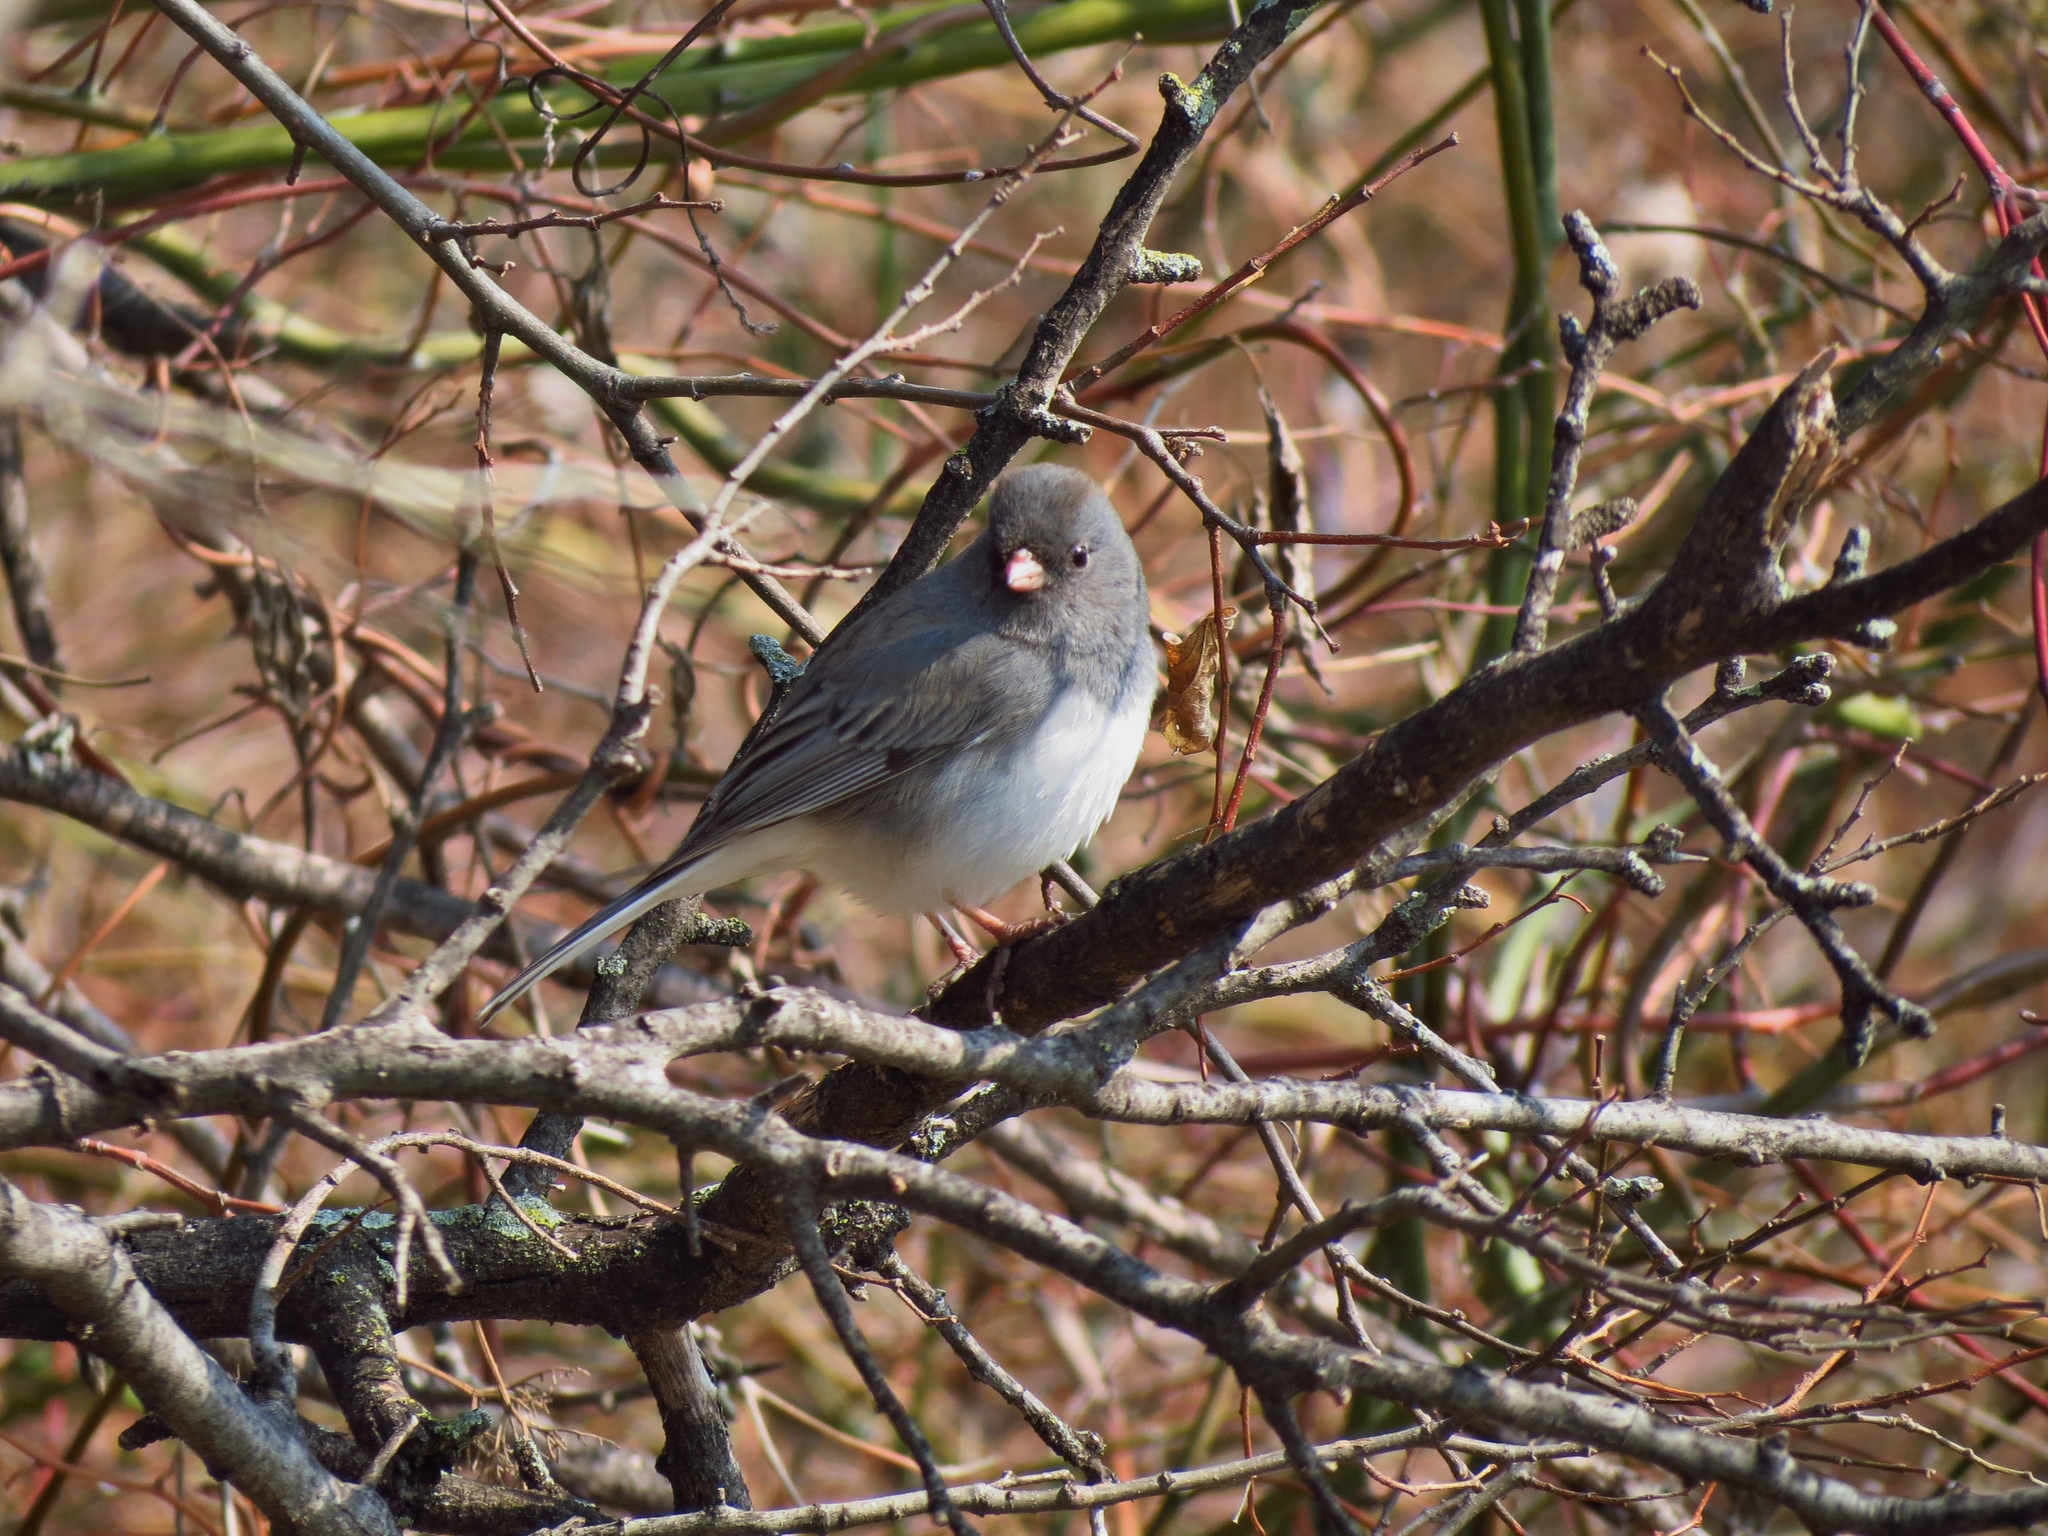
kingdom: Animalia
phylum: Chordata
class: Aves
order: Passeriformes
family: Passerellidae
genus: Junco
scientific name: Junco hyemalis
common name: Dark-eyed junco
